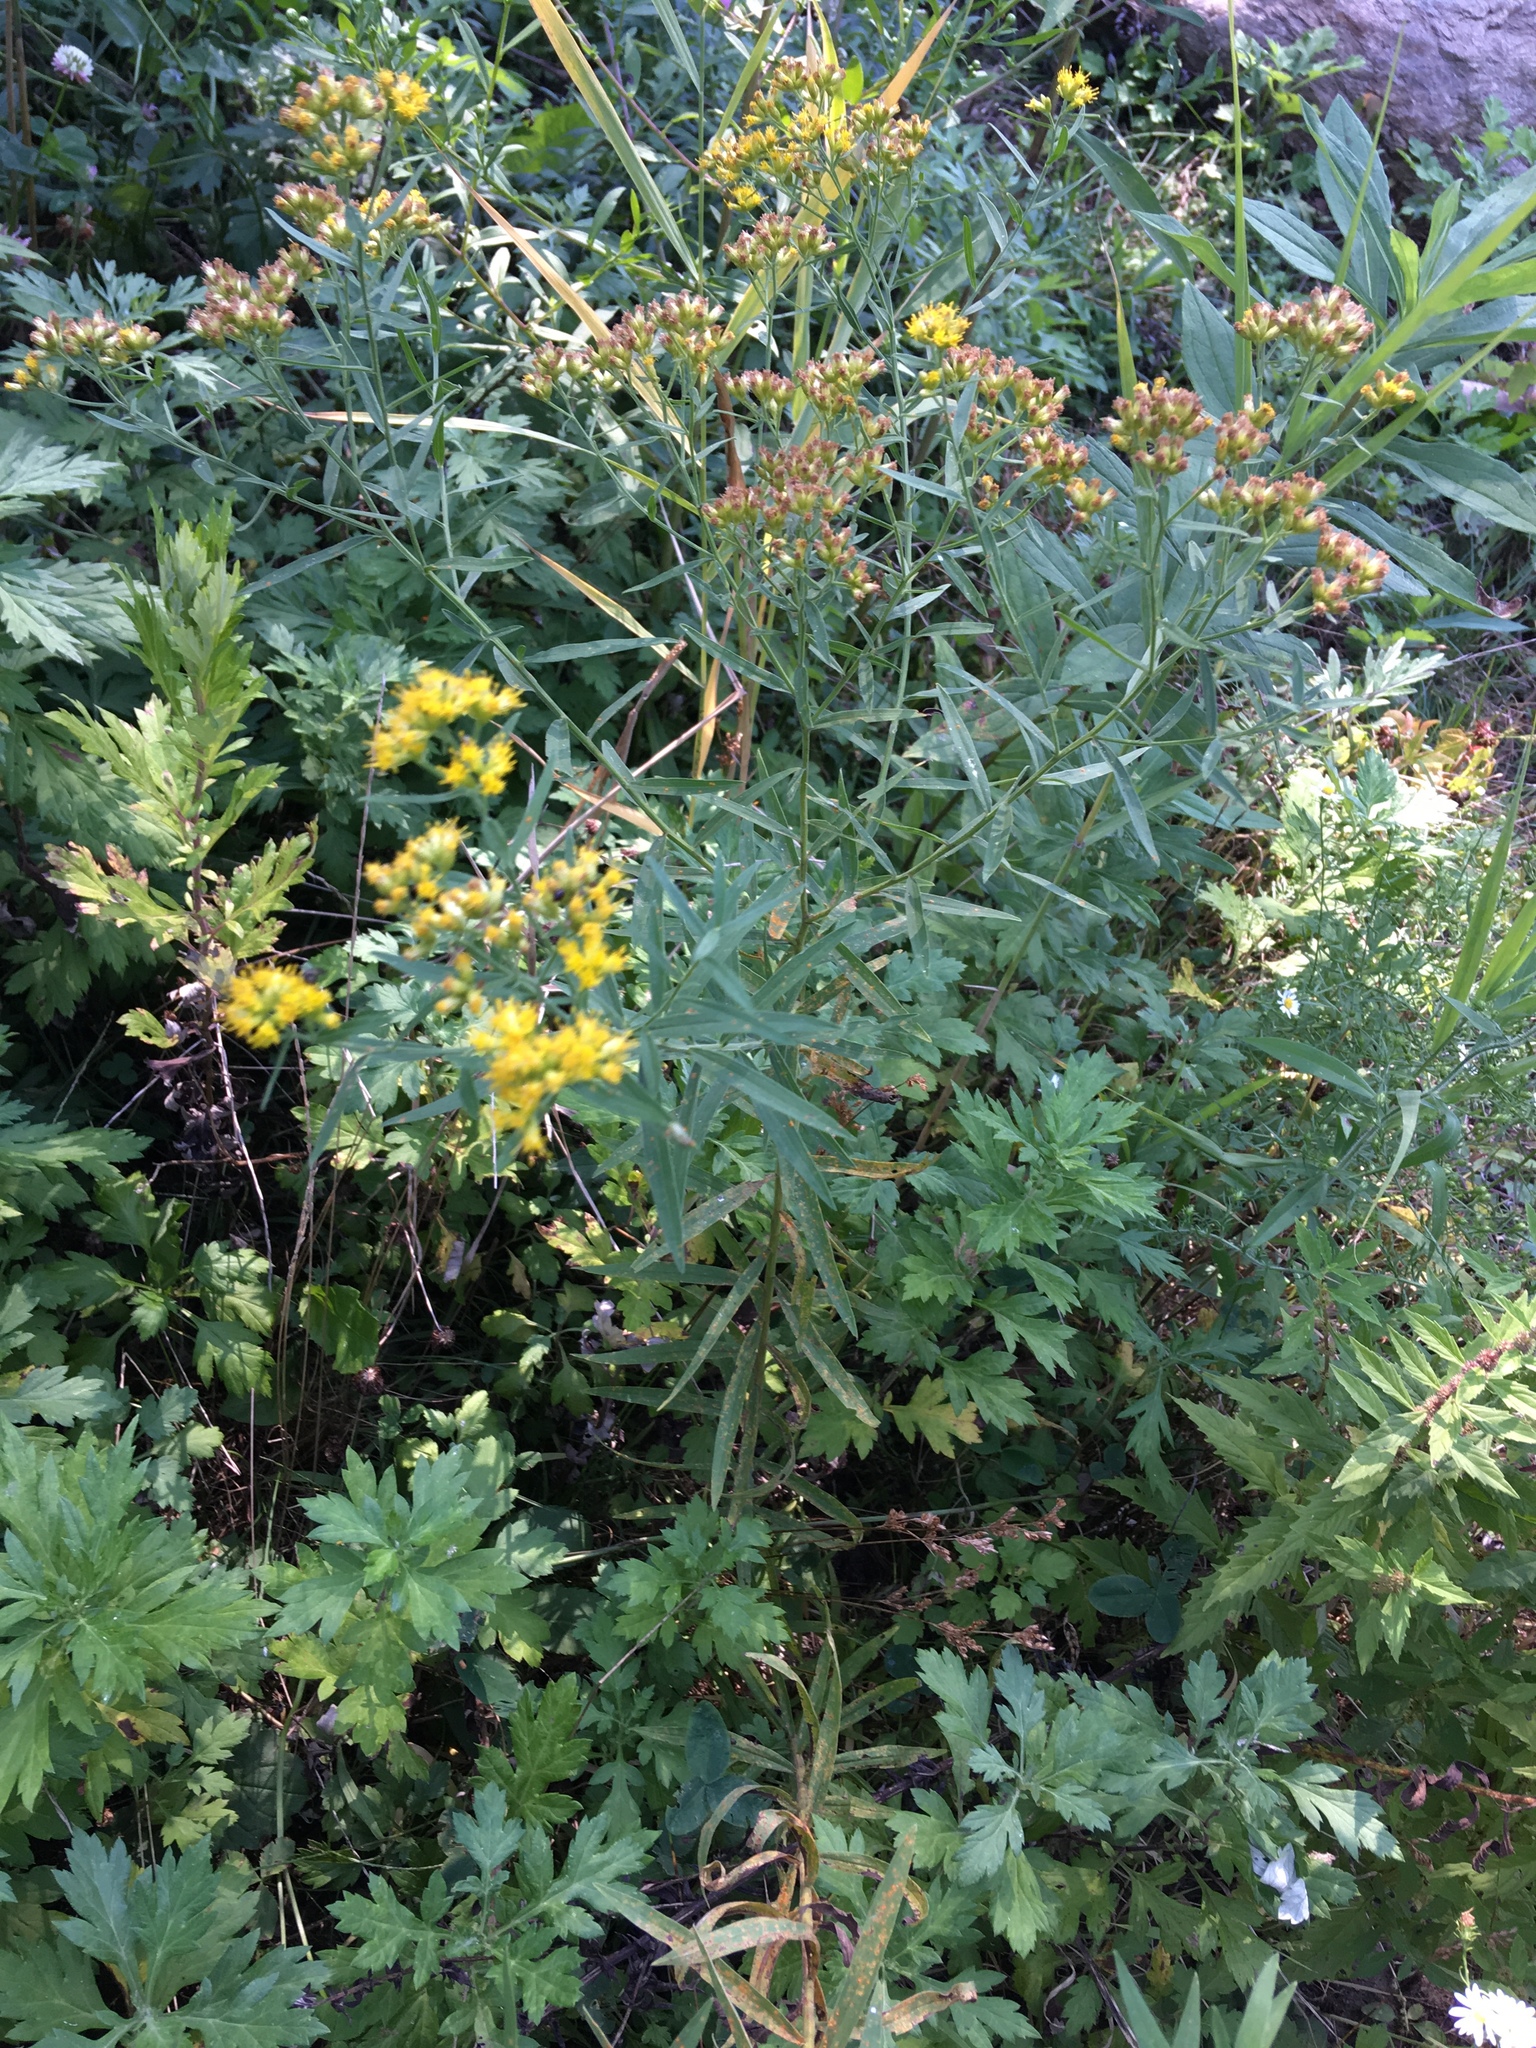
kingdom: Plantae
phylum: Tracheophyta
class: Magnoliopsida
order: Asterales
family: Asteraceae
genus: Solidago
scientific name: Solidago sempervirens
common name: Salt-marsh goldenrod
